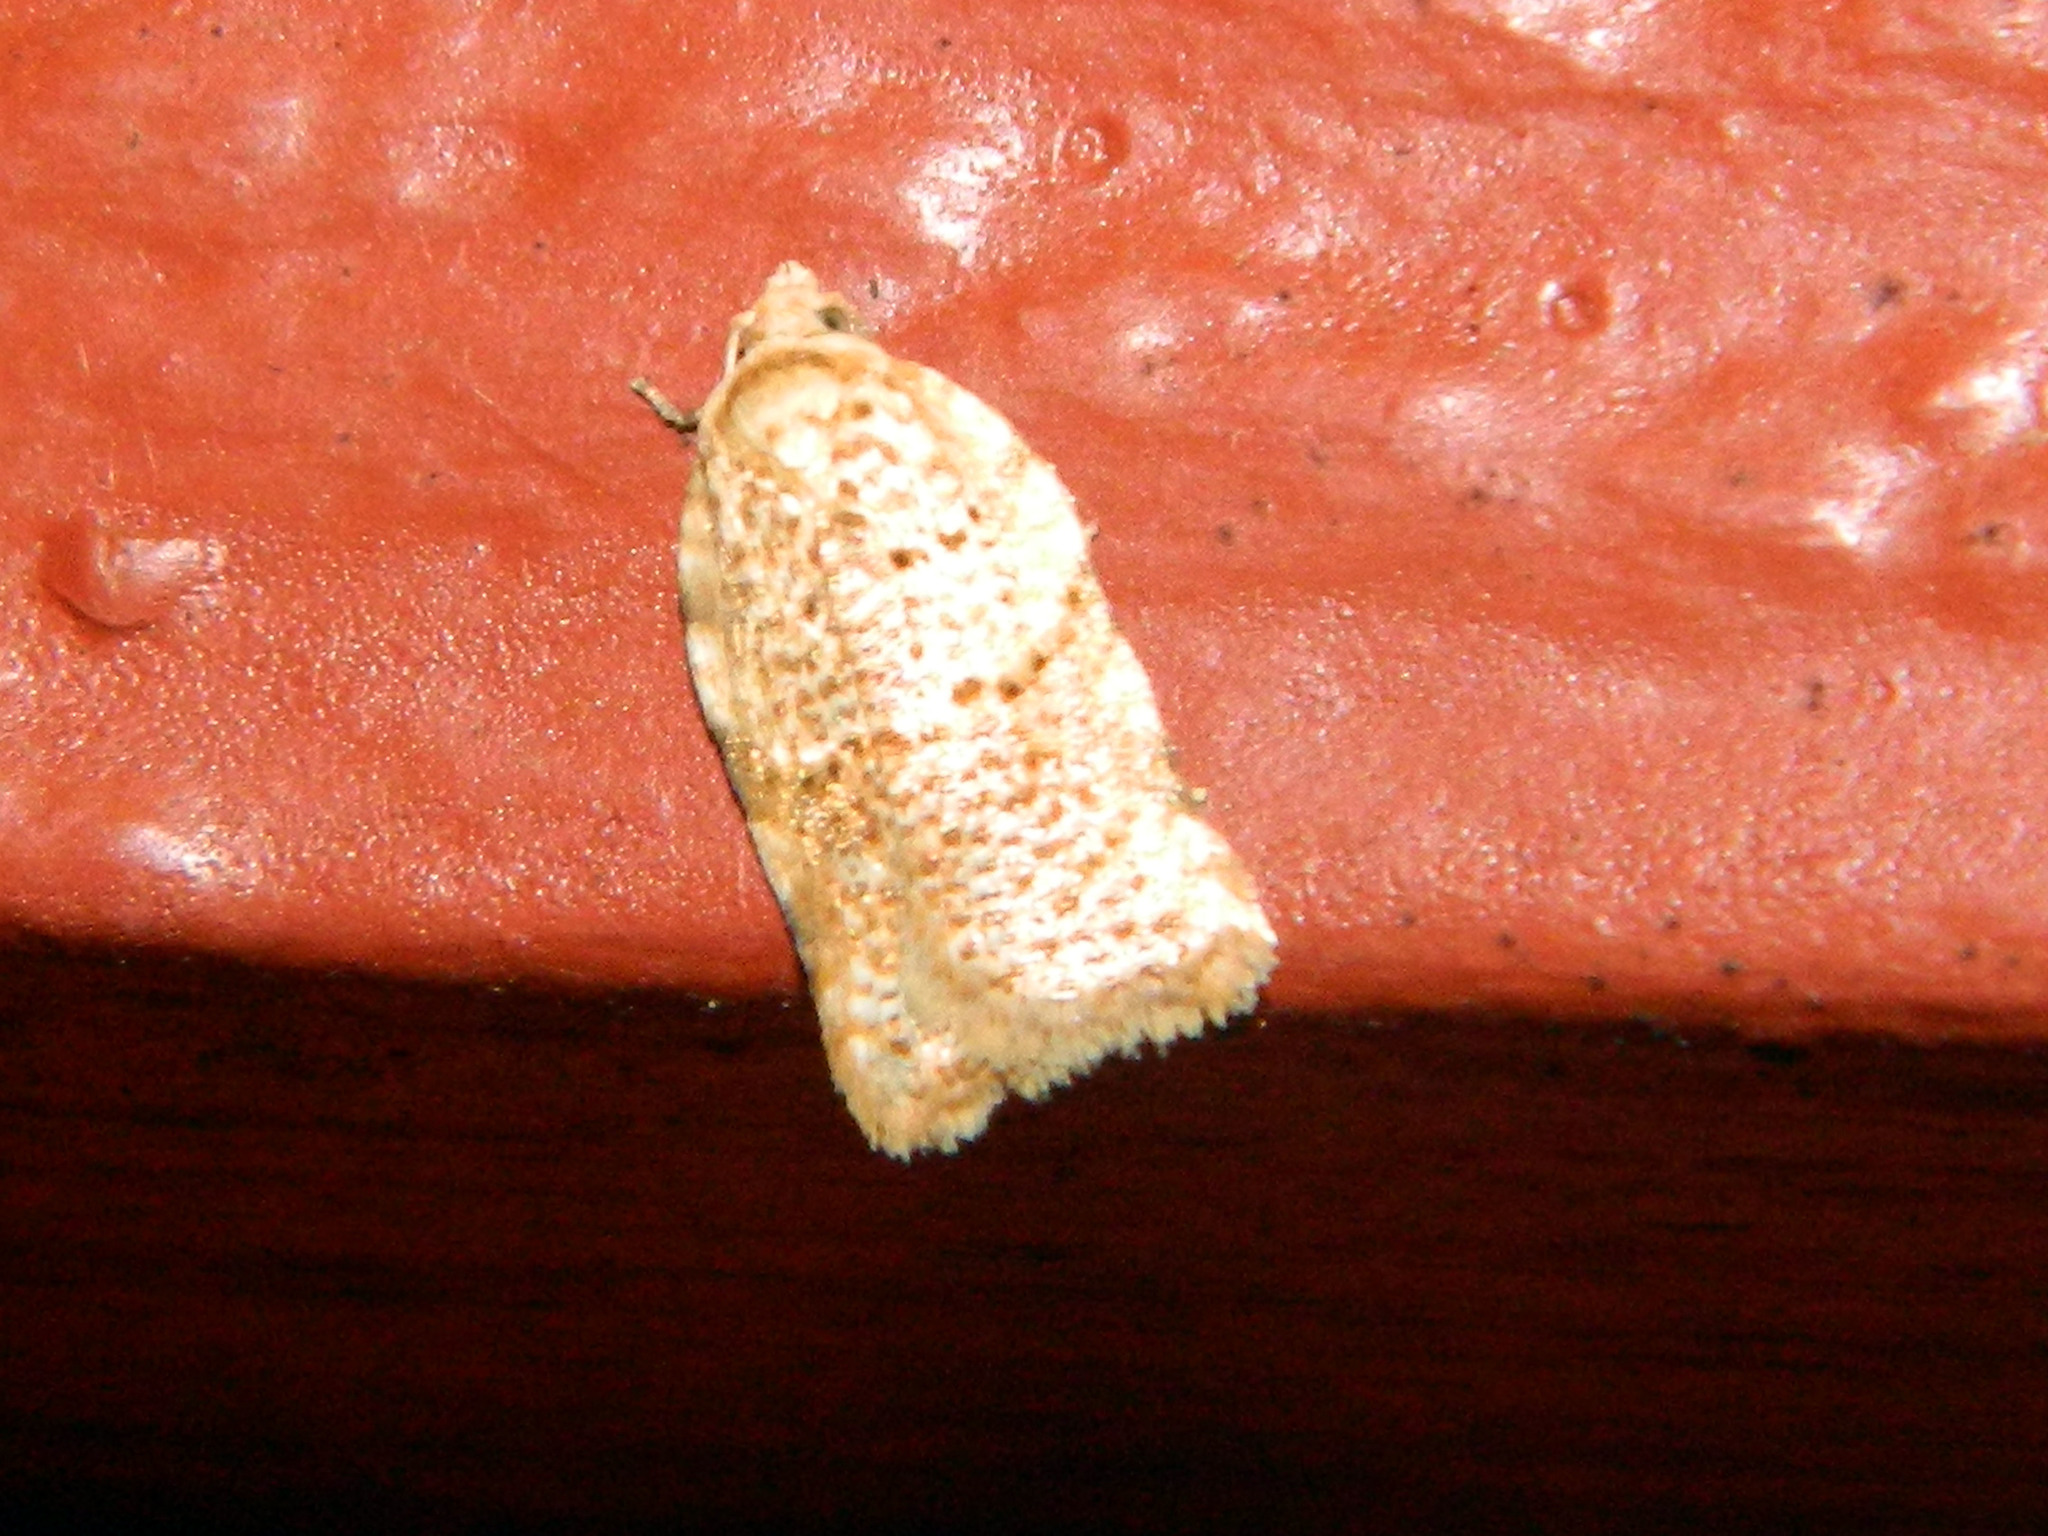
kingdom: Animalia
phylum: Arthropoda
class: Insecta
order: Lepidoptera
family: Tortricidae
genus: Acleris
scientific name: Acleris cervinana
